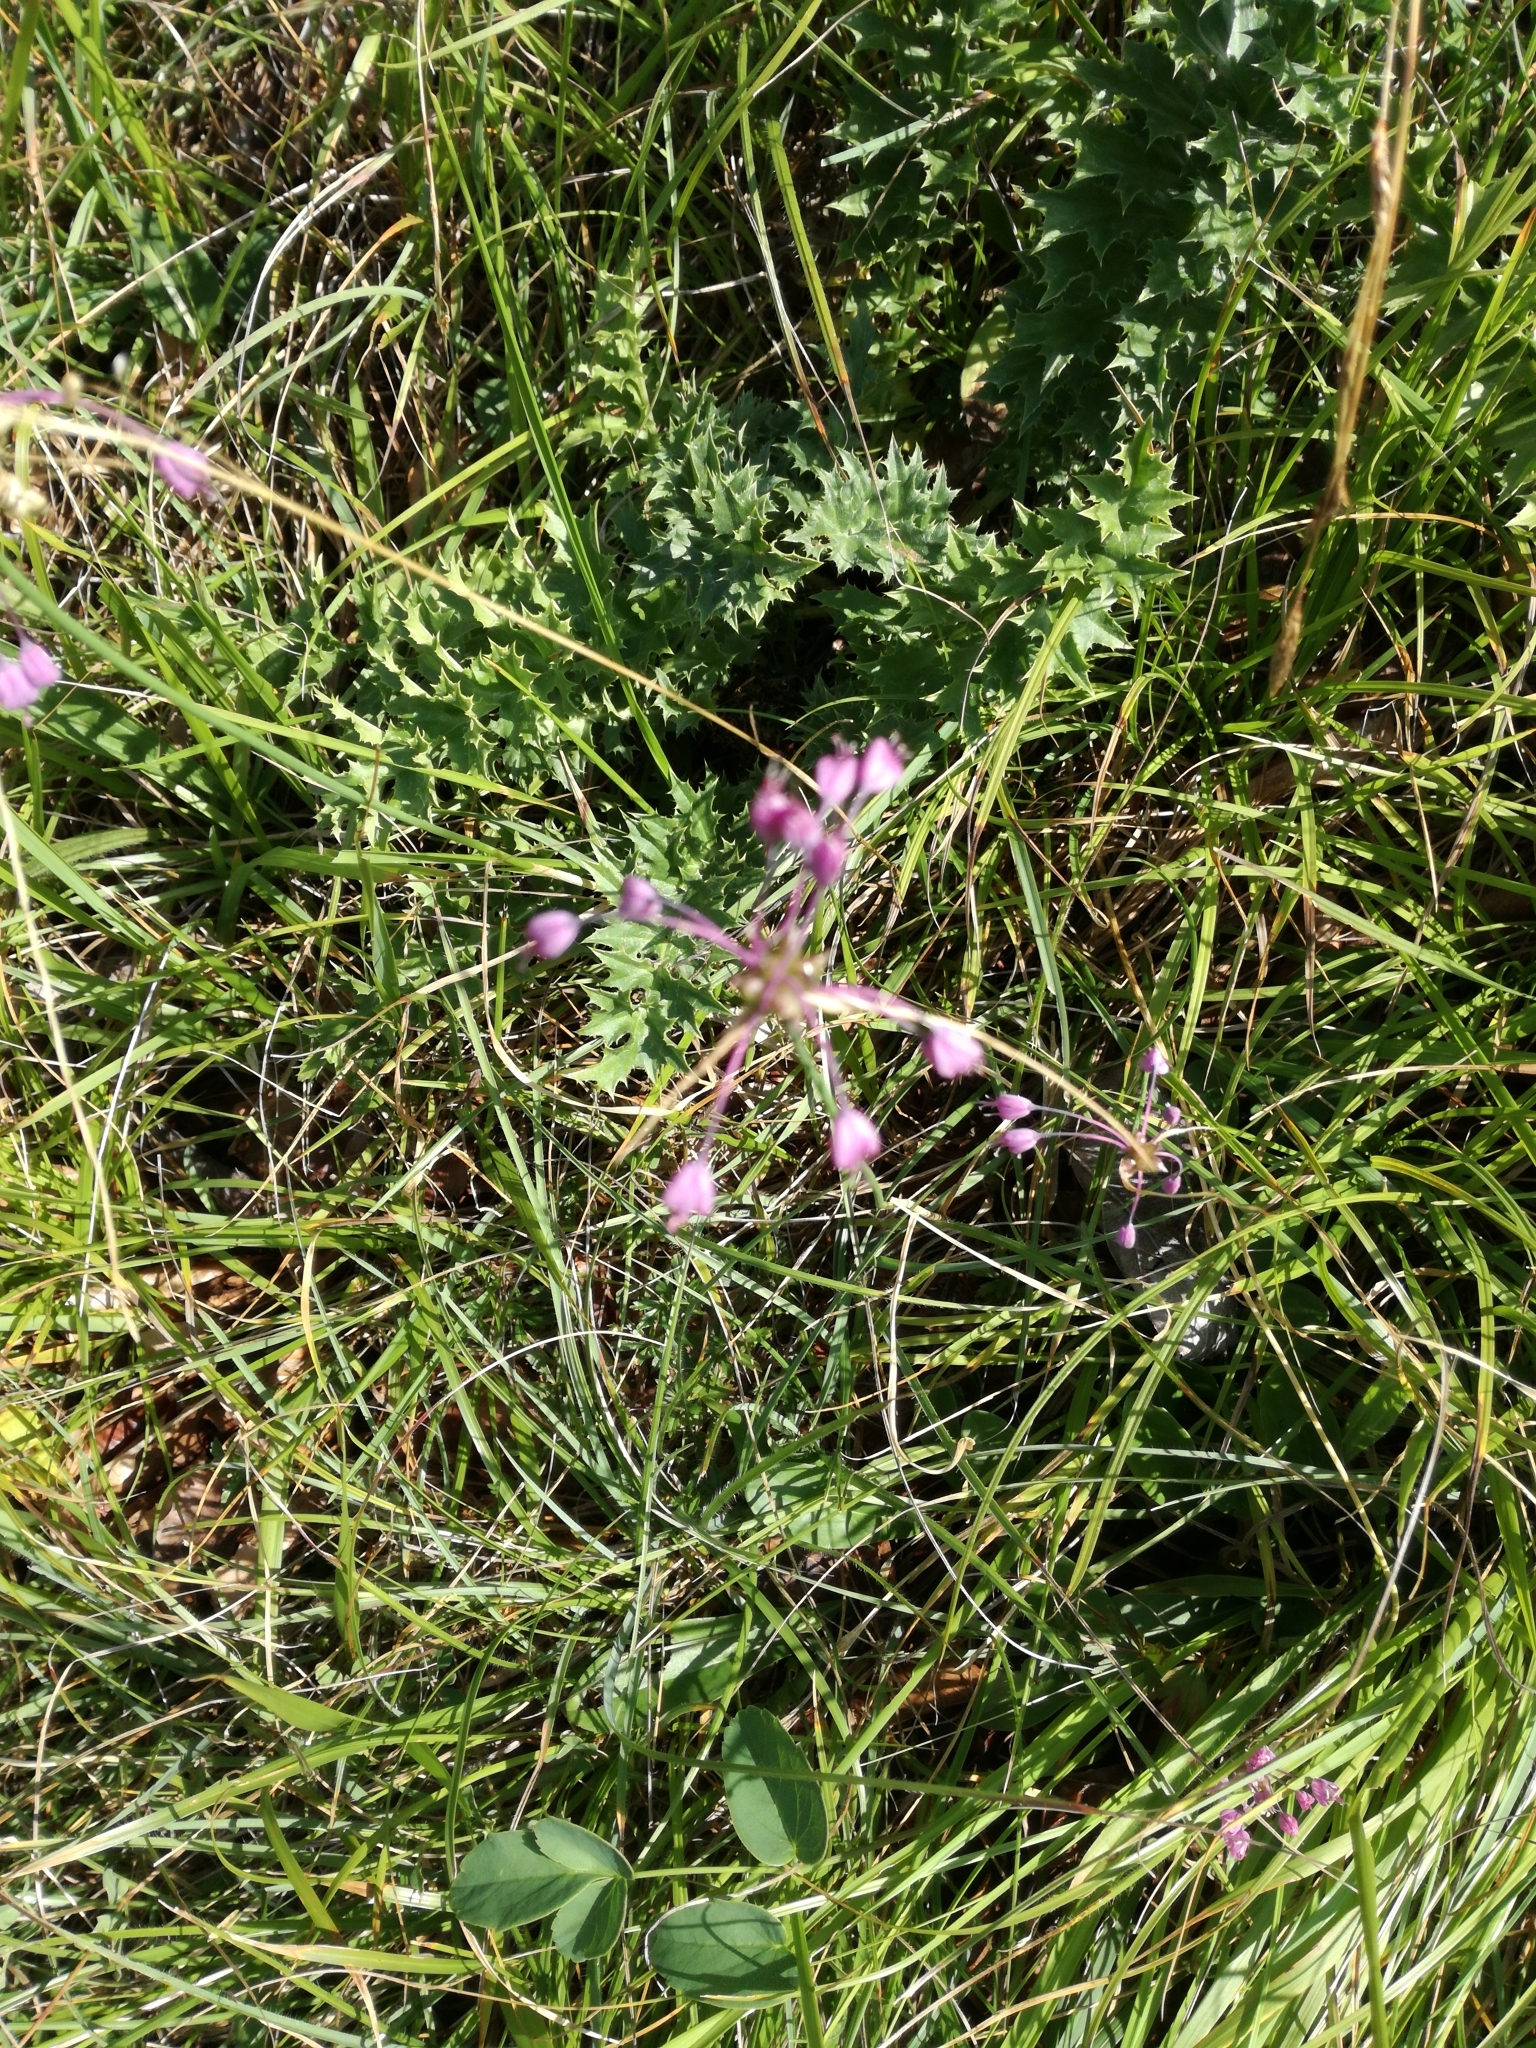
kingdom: Plantae
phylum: Tracheophyta
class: Liliopsida
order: Asparagales
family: Amaryllidaceae
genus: Allium
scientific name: Allium carinatum
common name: Keeled garlic
